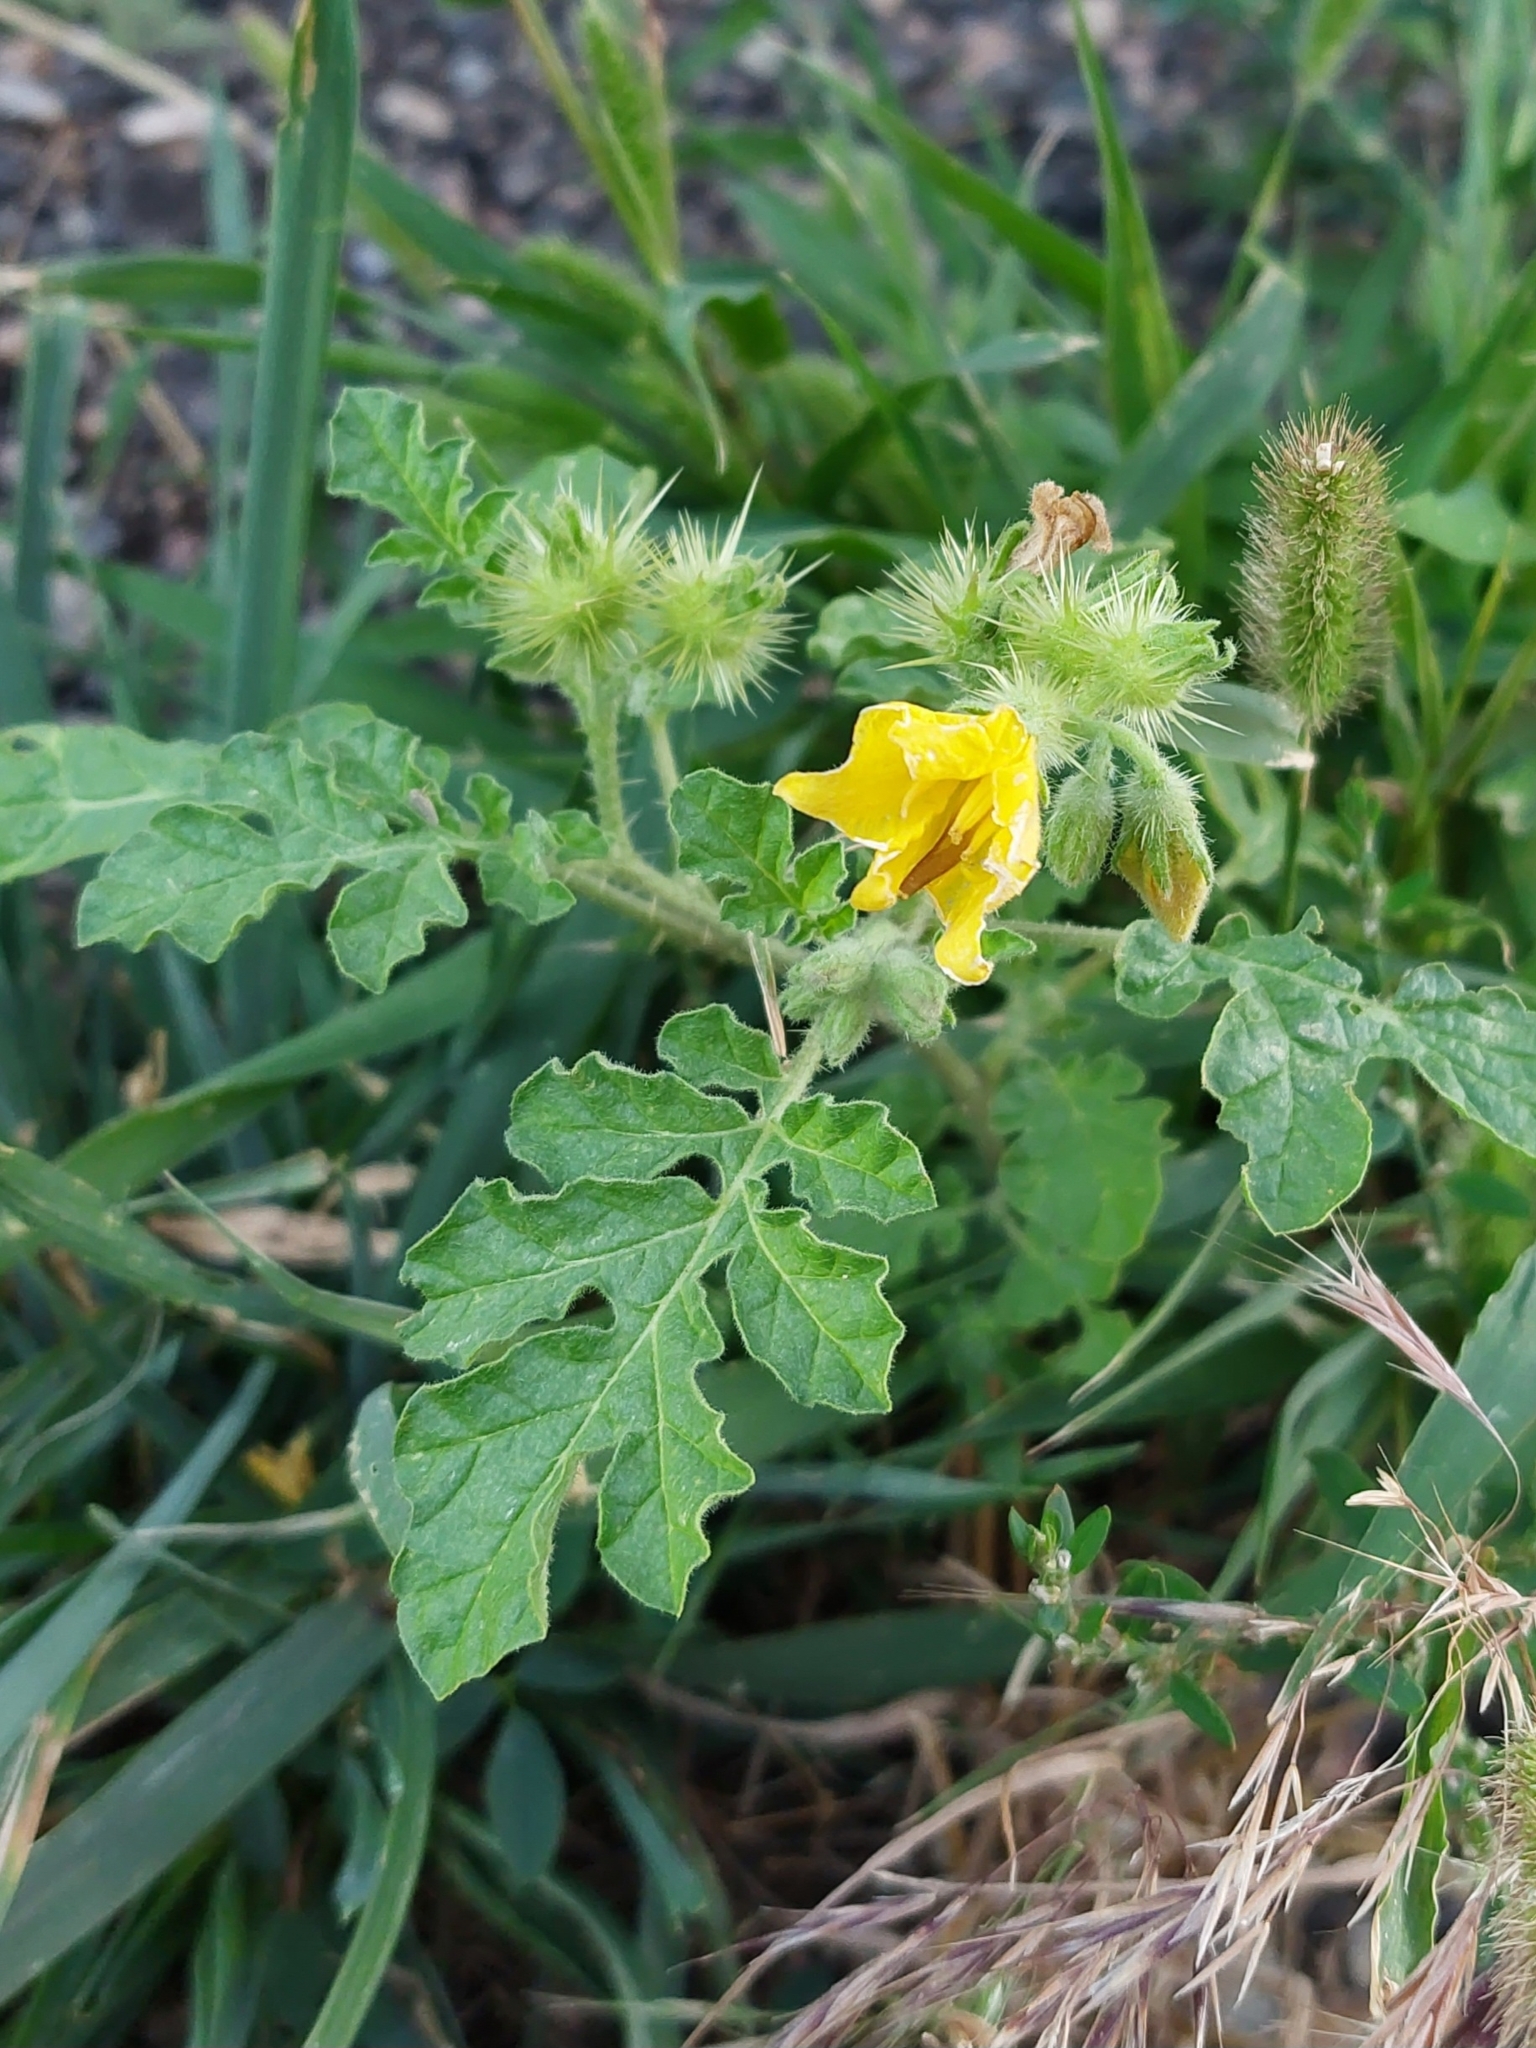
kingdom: Plantae
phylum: Tracheophyta
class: Magnoliopsida
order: Solanales
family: Solanaceae
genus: Solanum
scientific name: Solanum angustifolium
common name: Buffalobur nightshade
